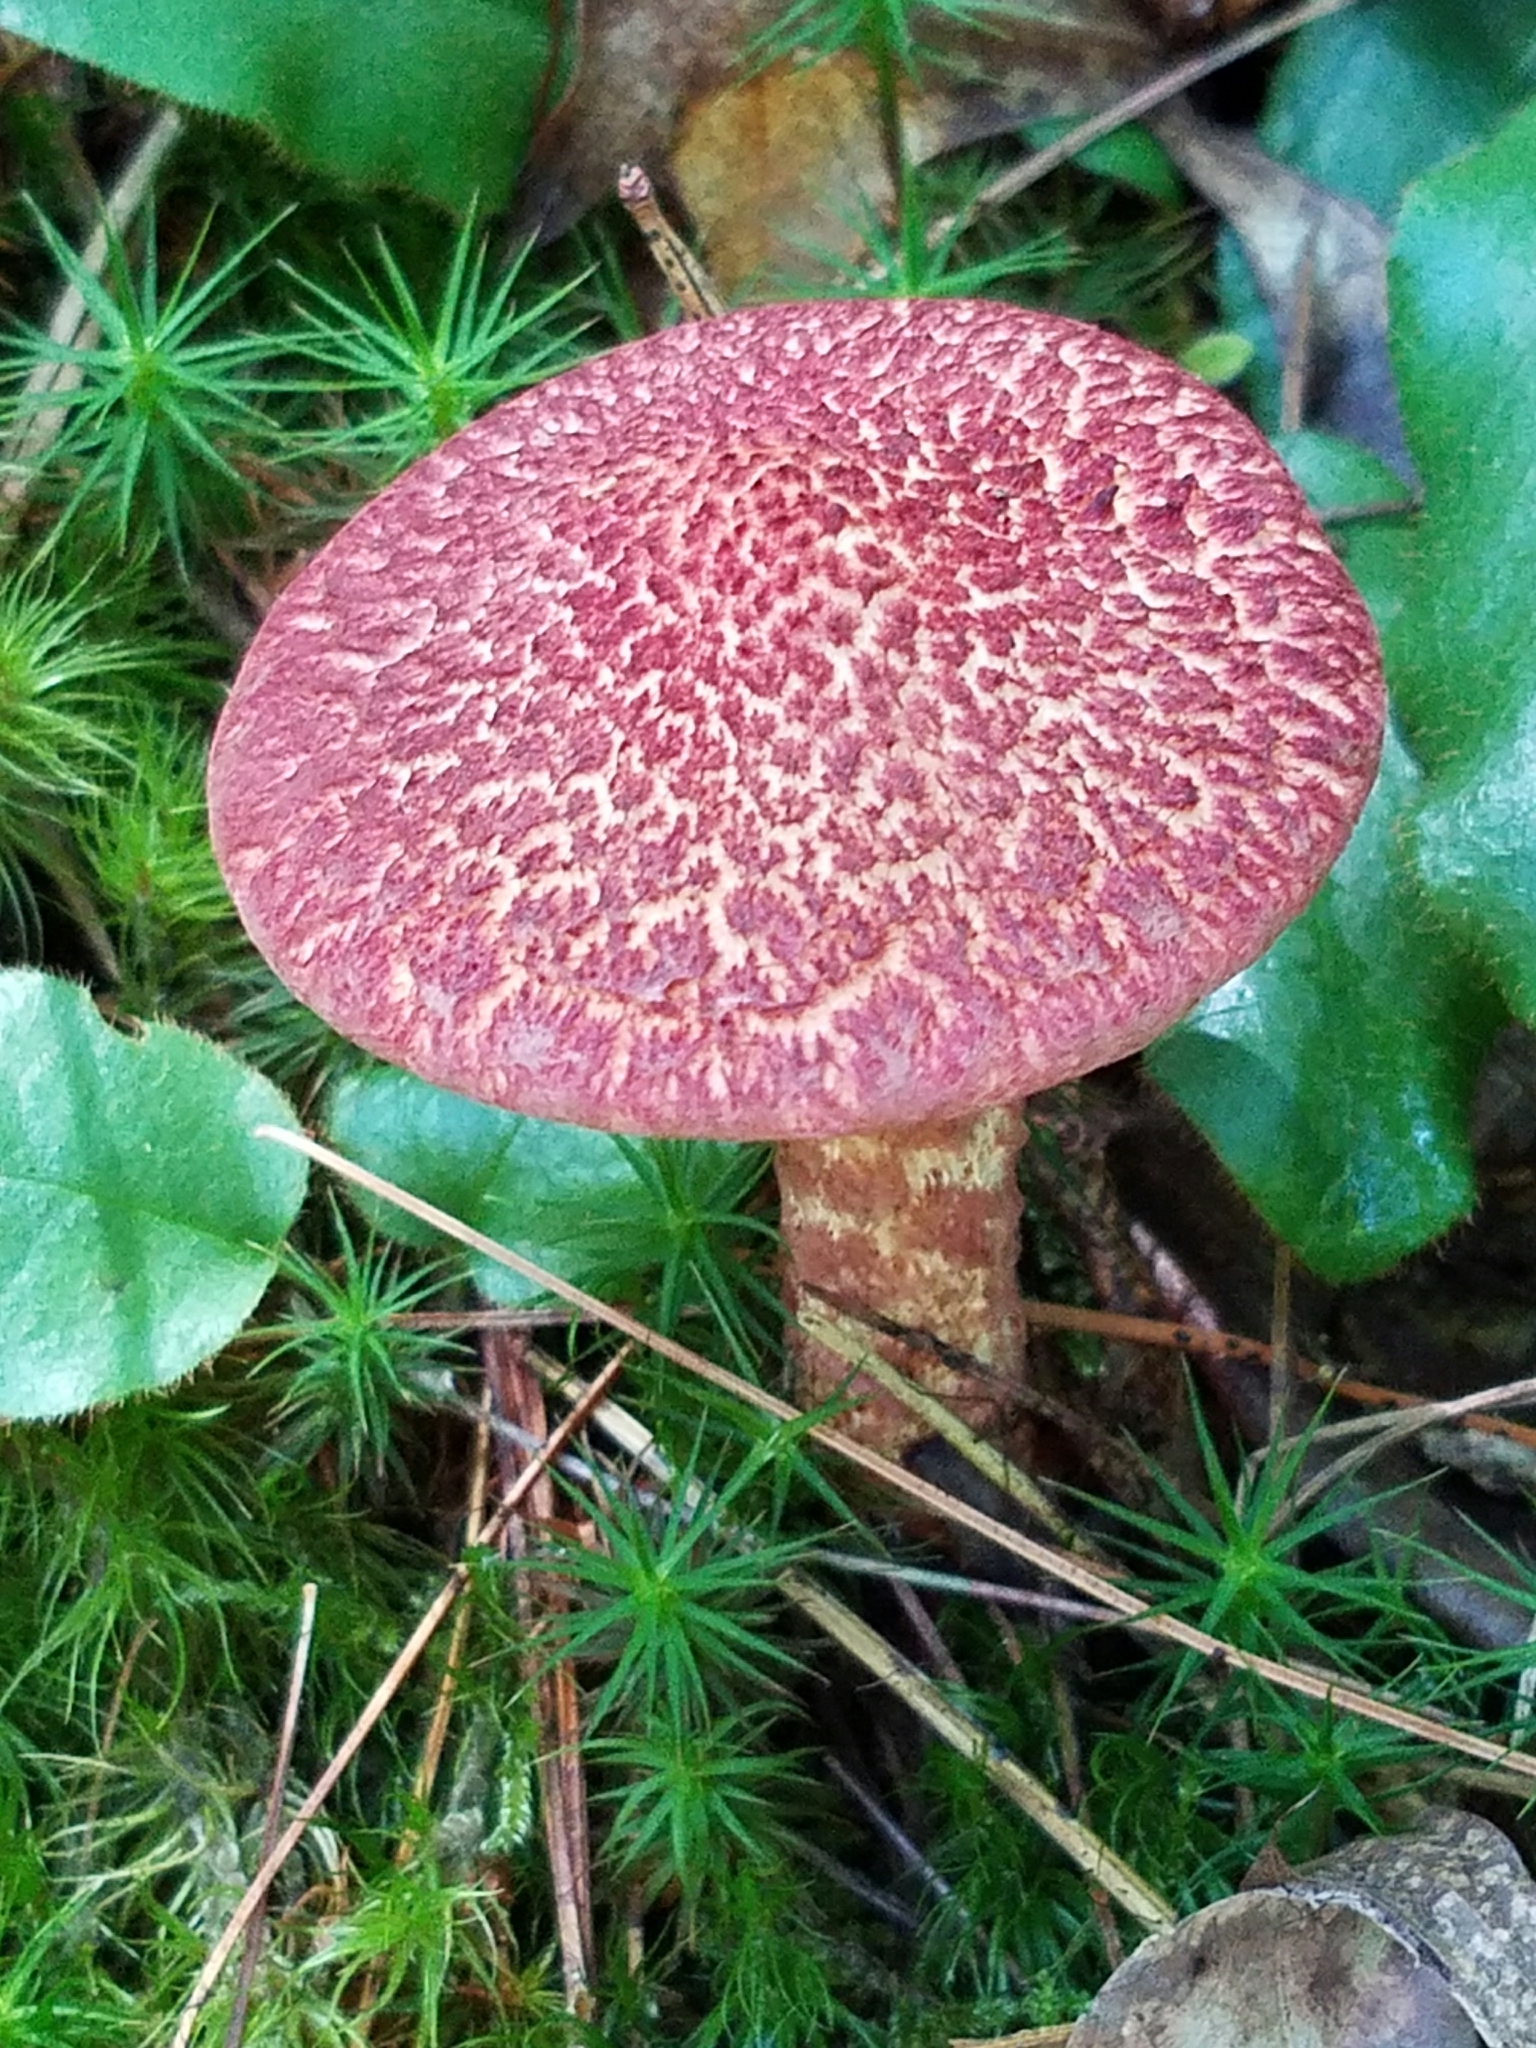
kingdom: Fungi
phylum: Basidiomycota
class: Agaricomycetes
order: Boletales
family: Suillaceae
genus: Suillus
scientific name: Suillus spraguei
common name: Painted suillus
